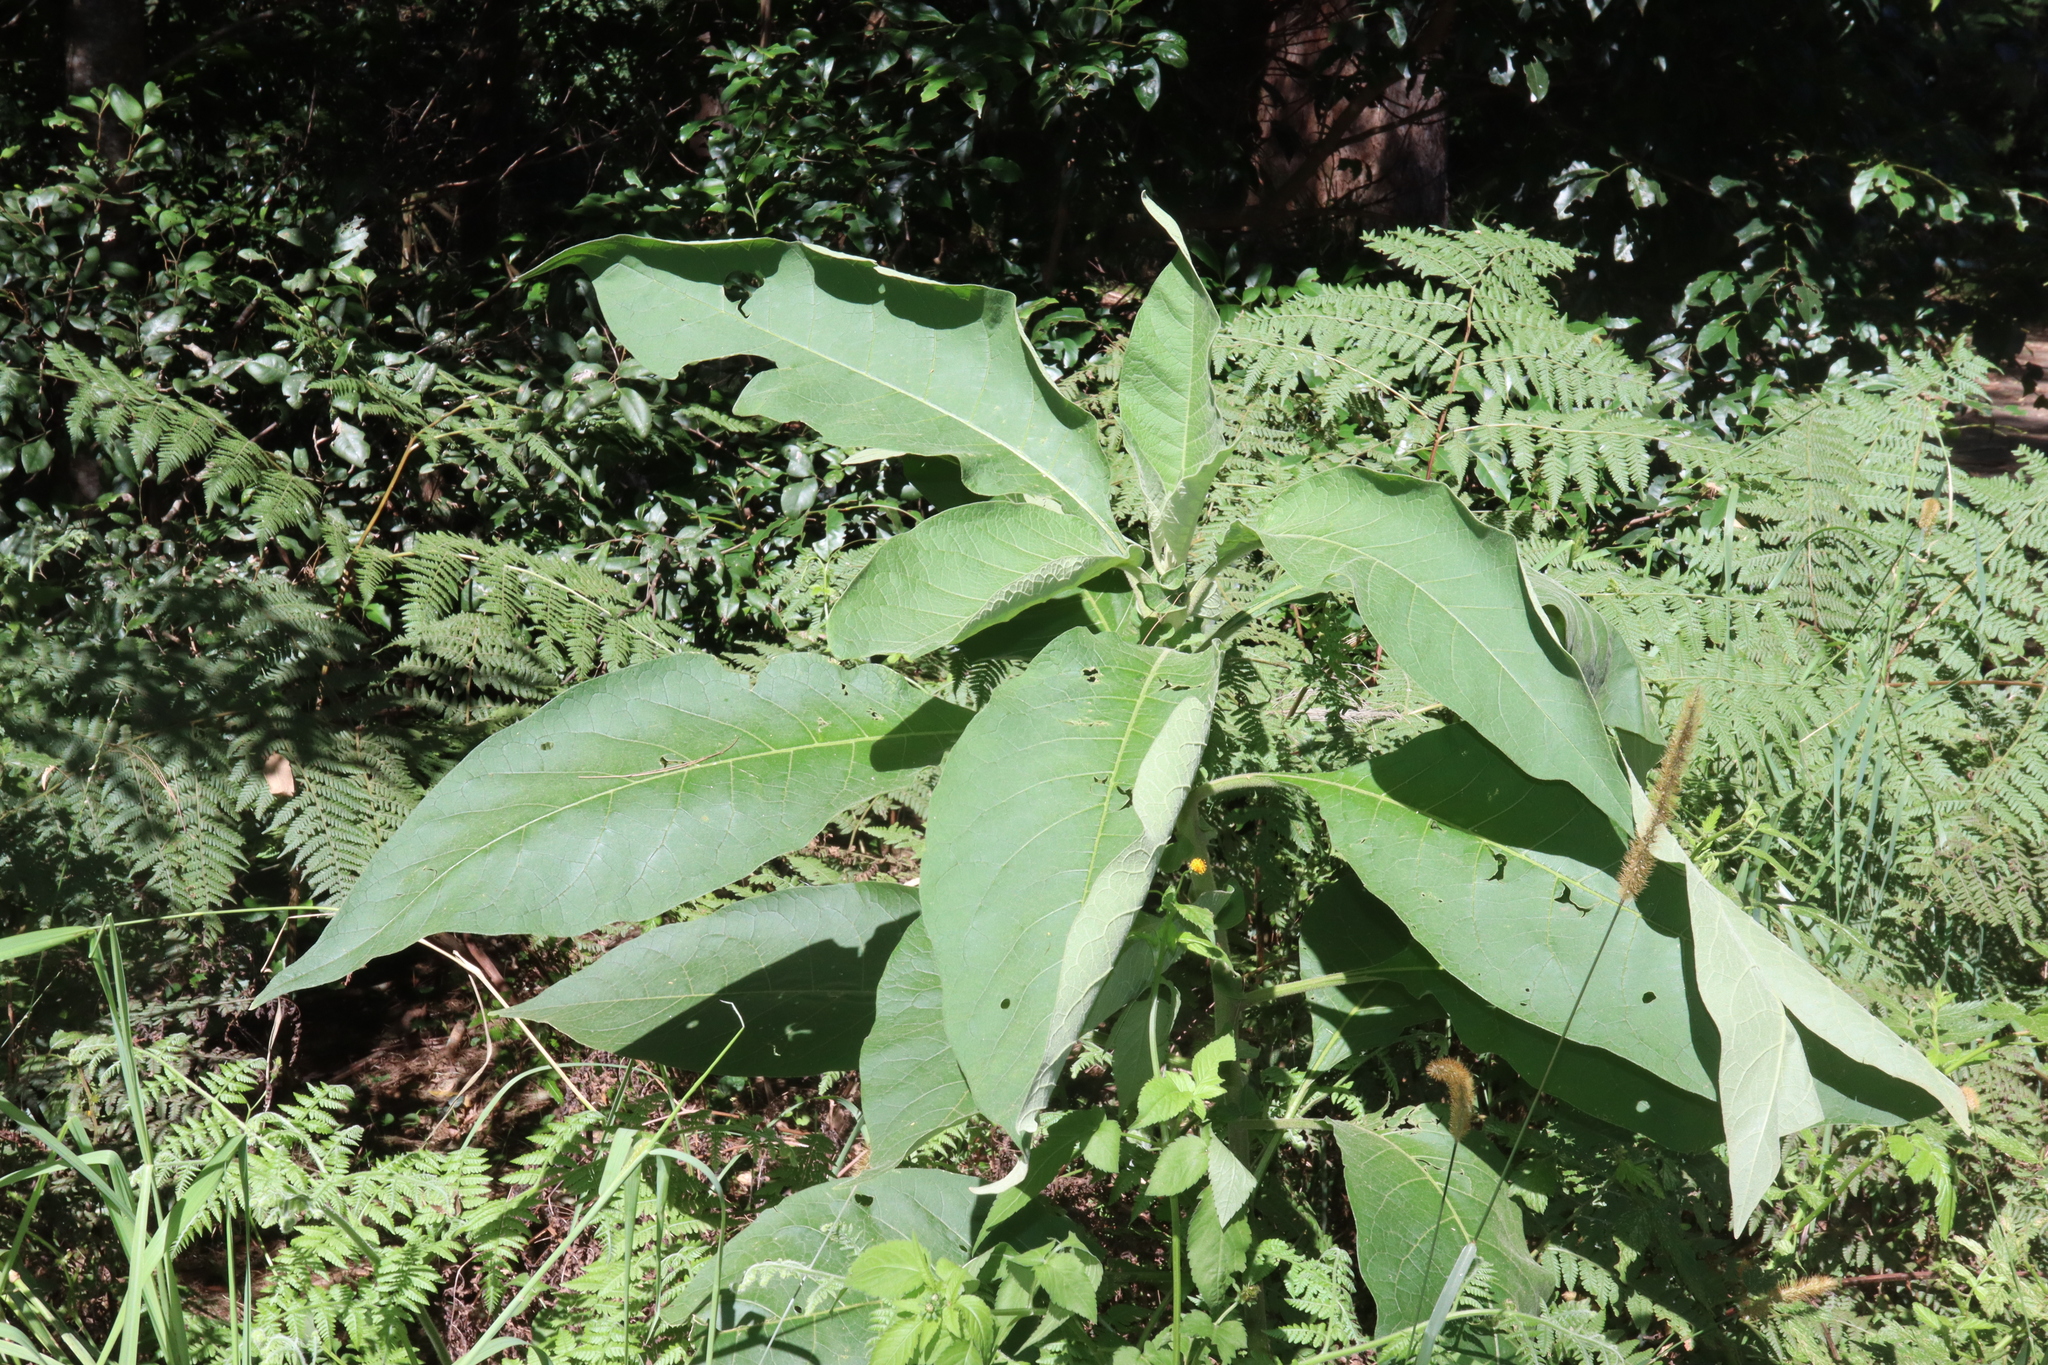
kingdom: Plantae
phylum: Tracheophyta
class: Magnoliopsida
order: Solanales
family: Solanaceae
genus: Solanum
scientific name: Solanum mauritianum
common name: Earleaf nightshade
